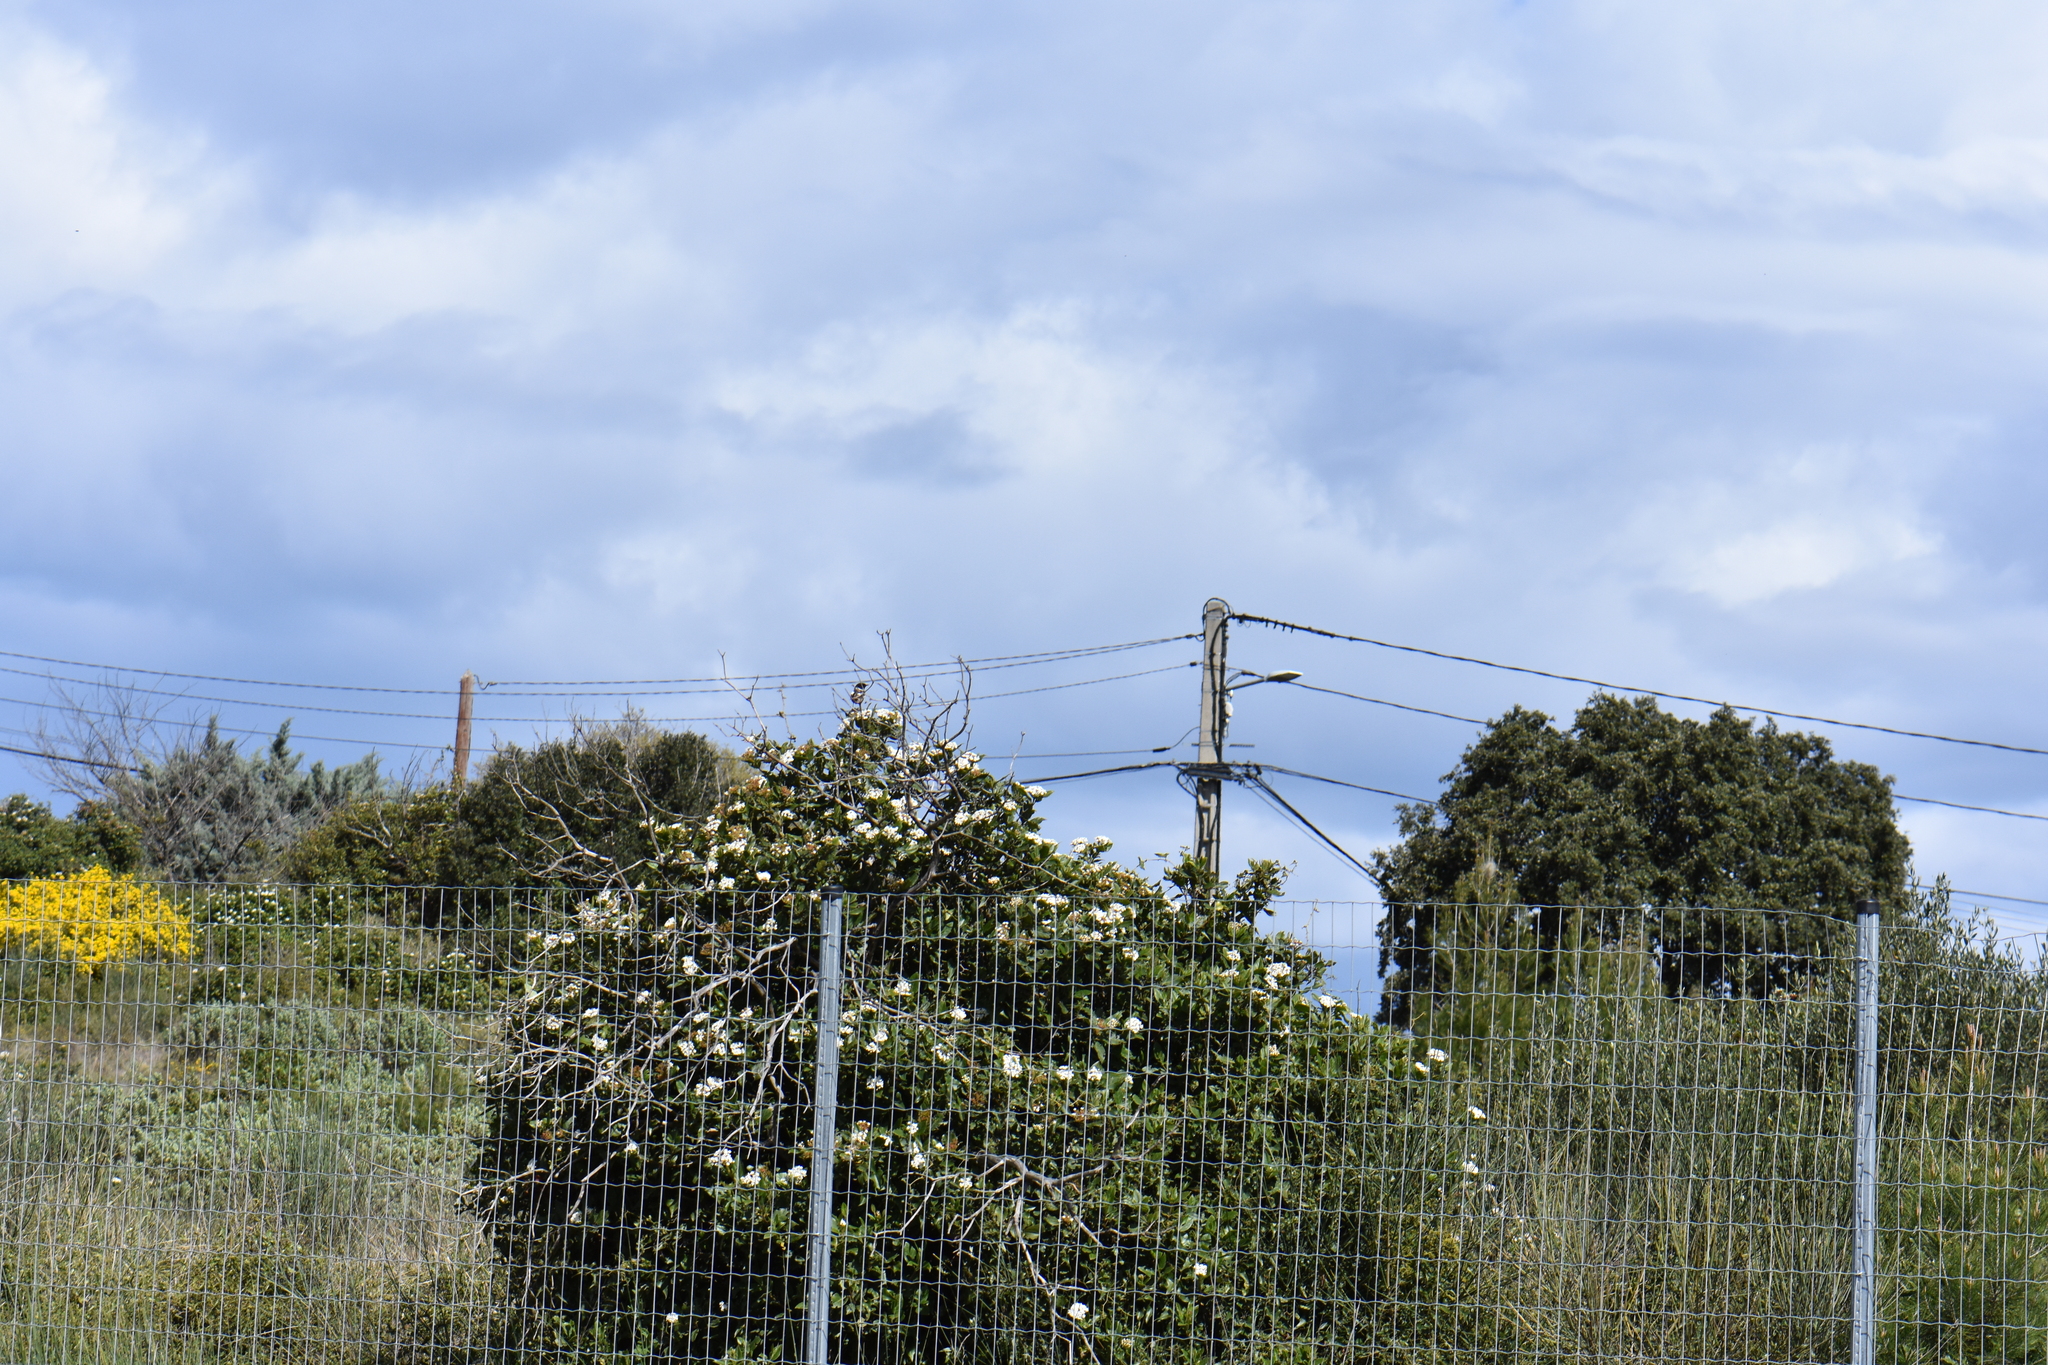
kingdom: Animalia
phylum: Chordata
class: Aves
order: Passeriformes
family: Muscicapidae
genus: Saxicola
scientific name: Saxicola rubicola
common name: European stonechat
